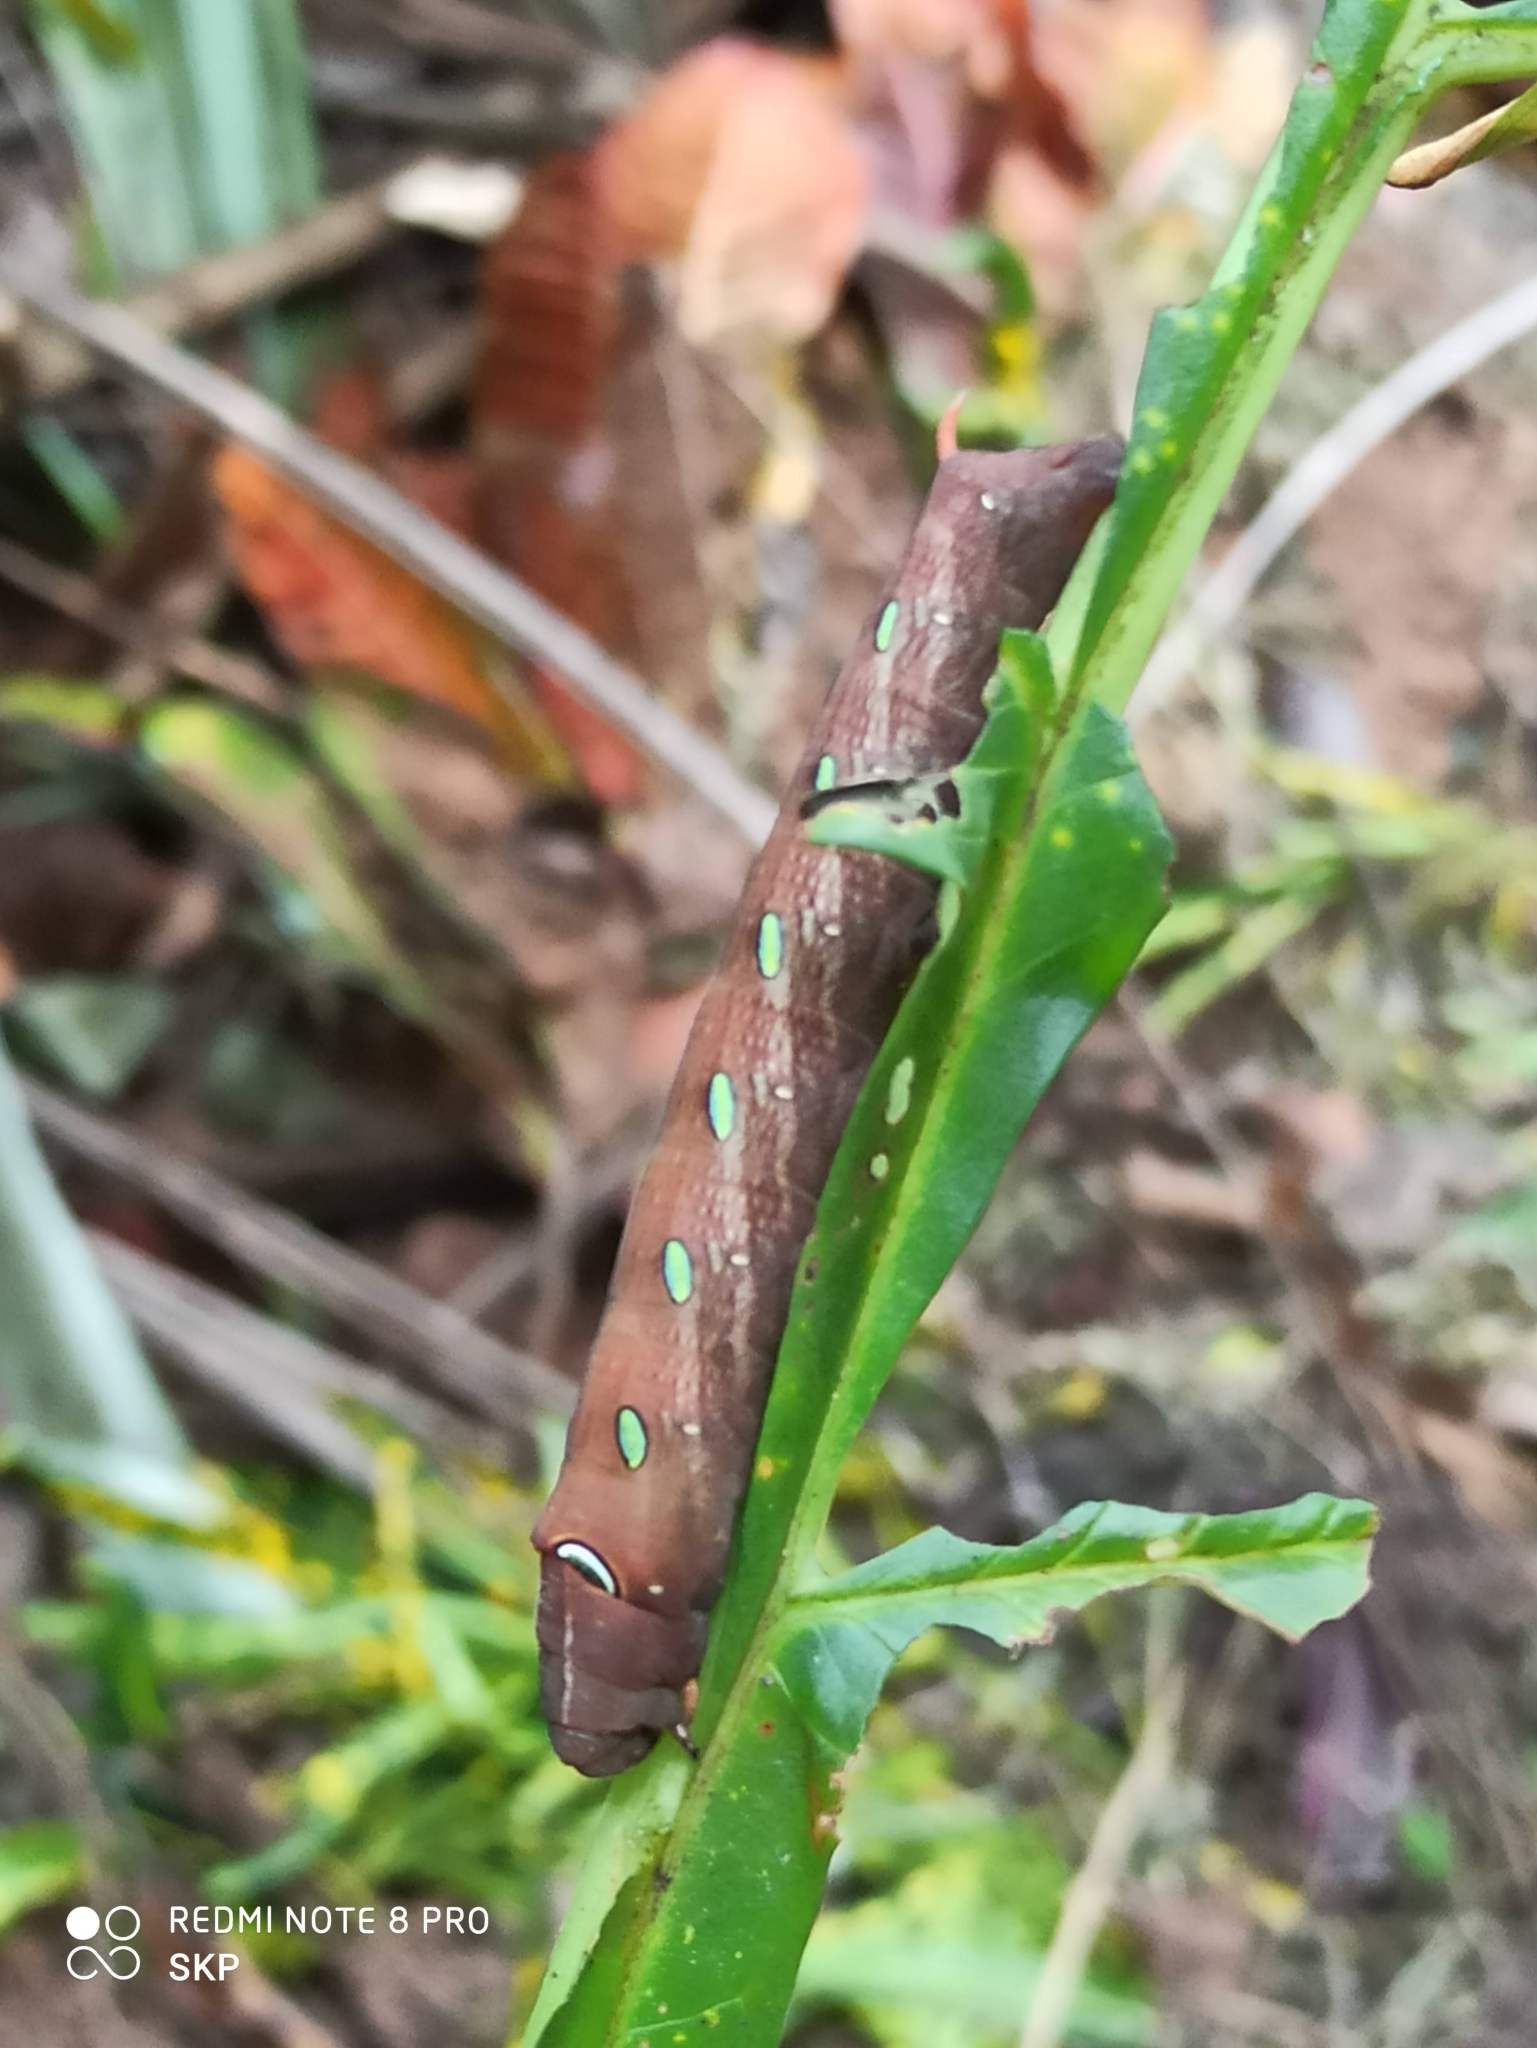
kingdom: Animalia
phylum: Arthropoda
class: Insecta
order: Lepidoptera
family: Sphingidae
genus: Pergesa
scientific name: Pergesa acteus
